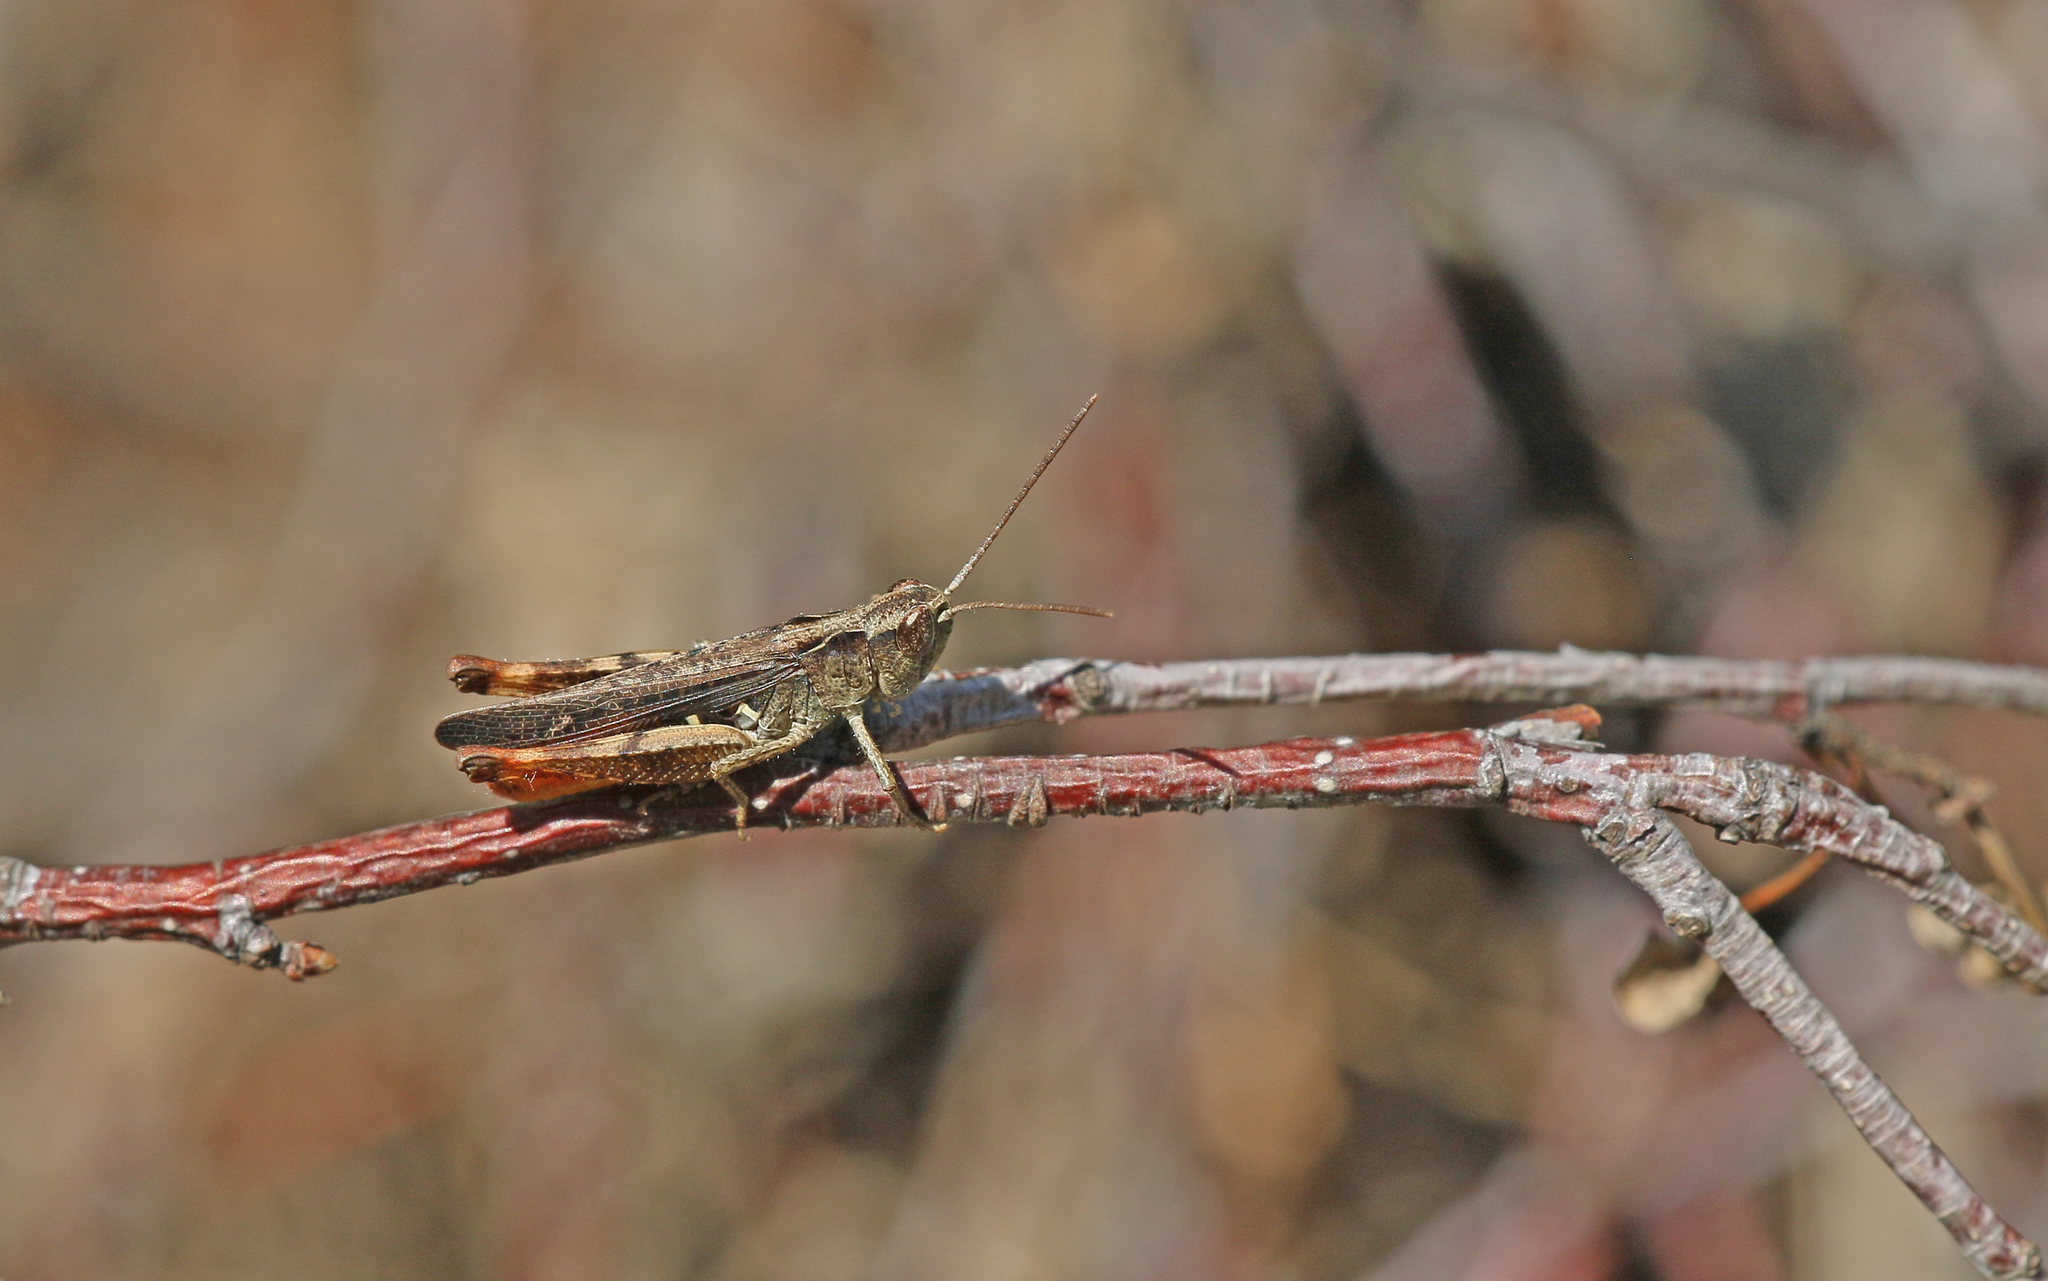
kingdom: Animalia
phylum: Arthropoda
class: Insecta
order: Orthoptera
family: Acrididae
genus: Chorthippus
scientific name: Chorthippus vagans
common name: Heath grasshopper
